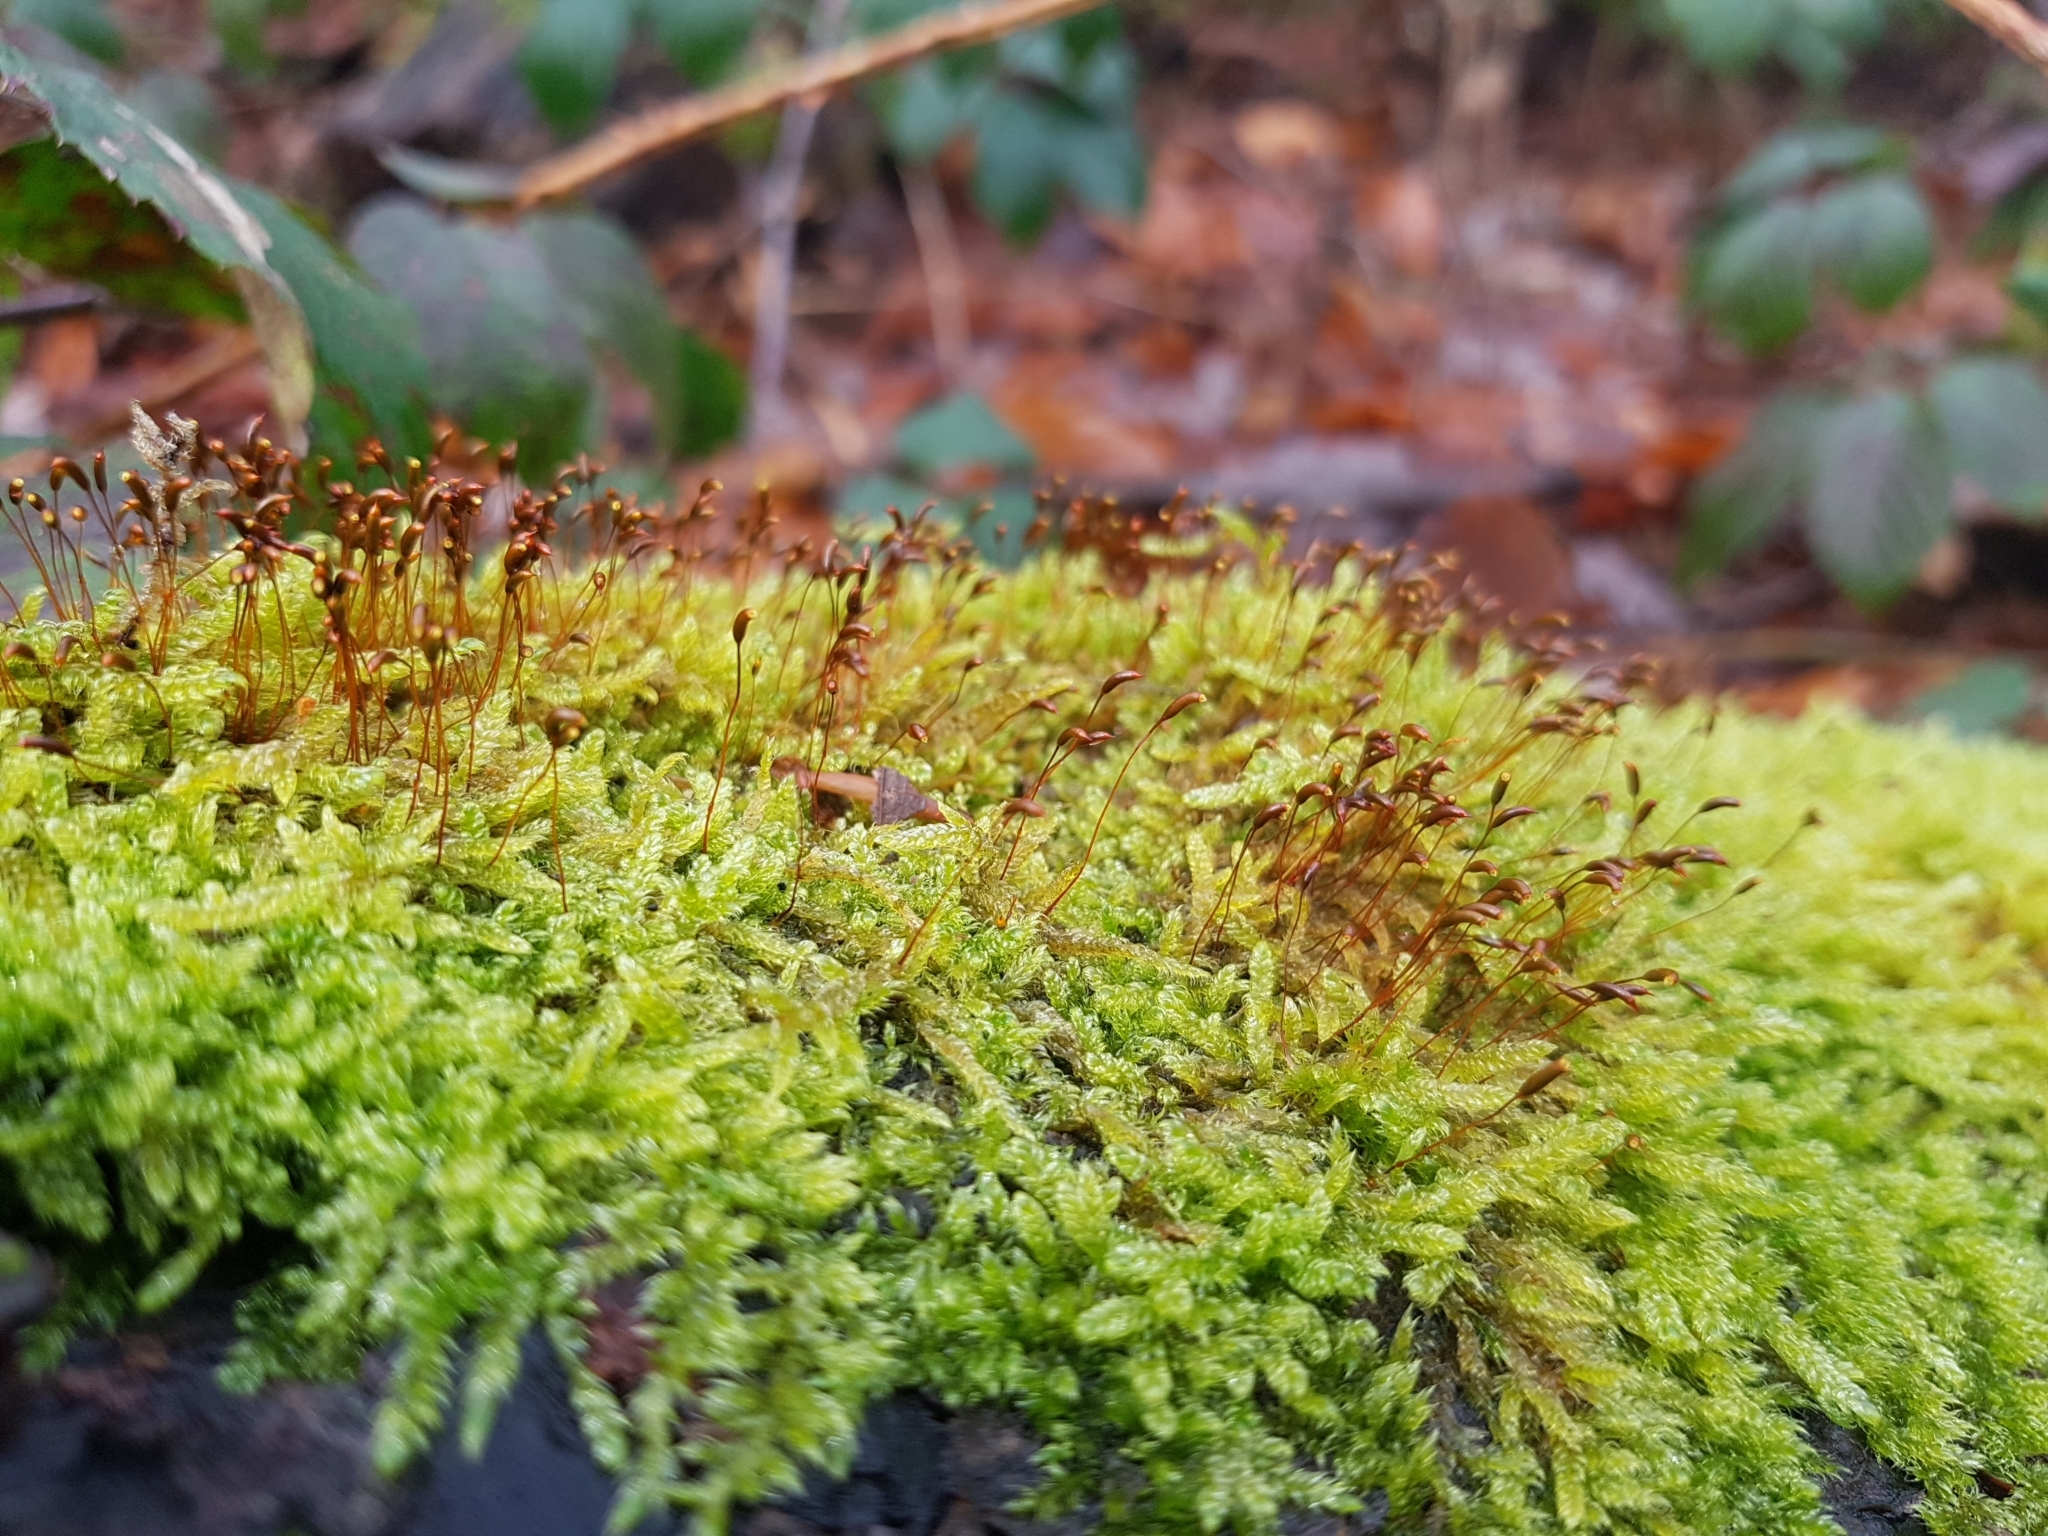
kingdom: Plantae
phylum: Bryophyta
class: Bryopsida
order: Hypnales
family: Hypnaceae
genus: Hypnum
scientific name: Hypnum cupressiforme
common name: Cypress-leaved plait-moss
